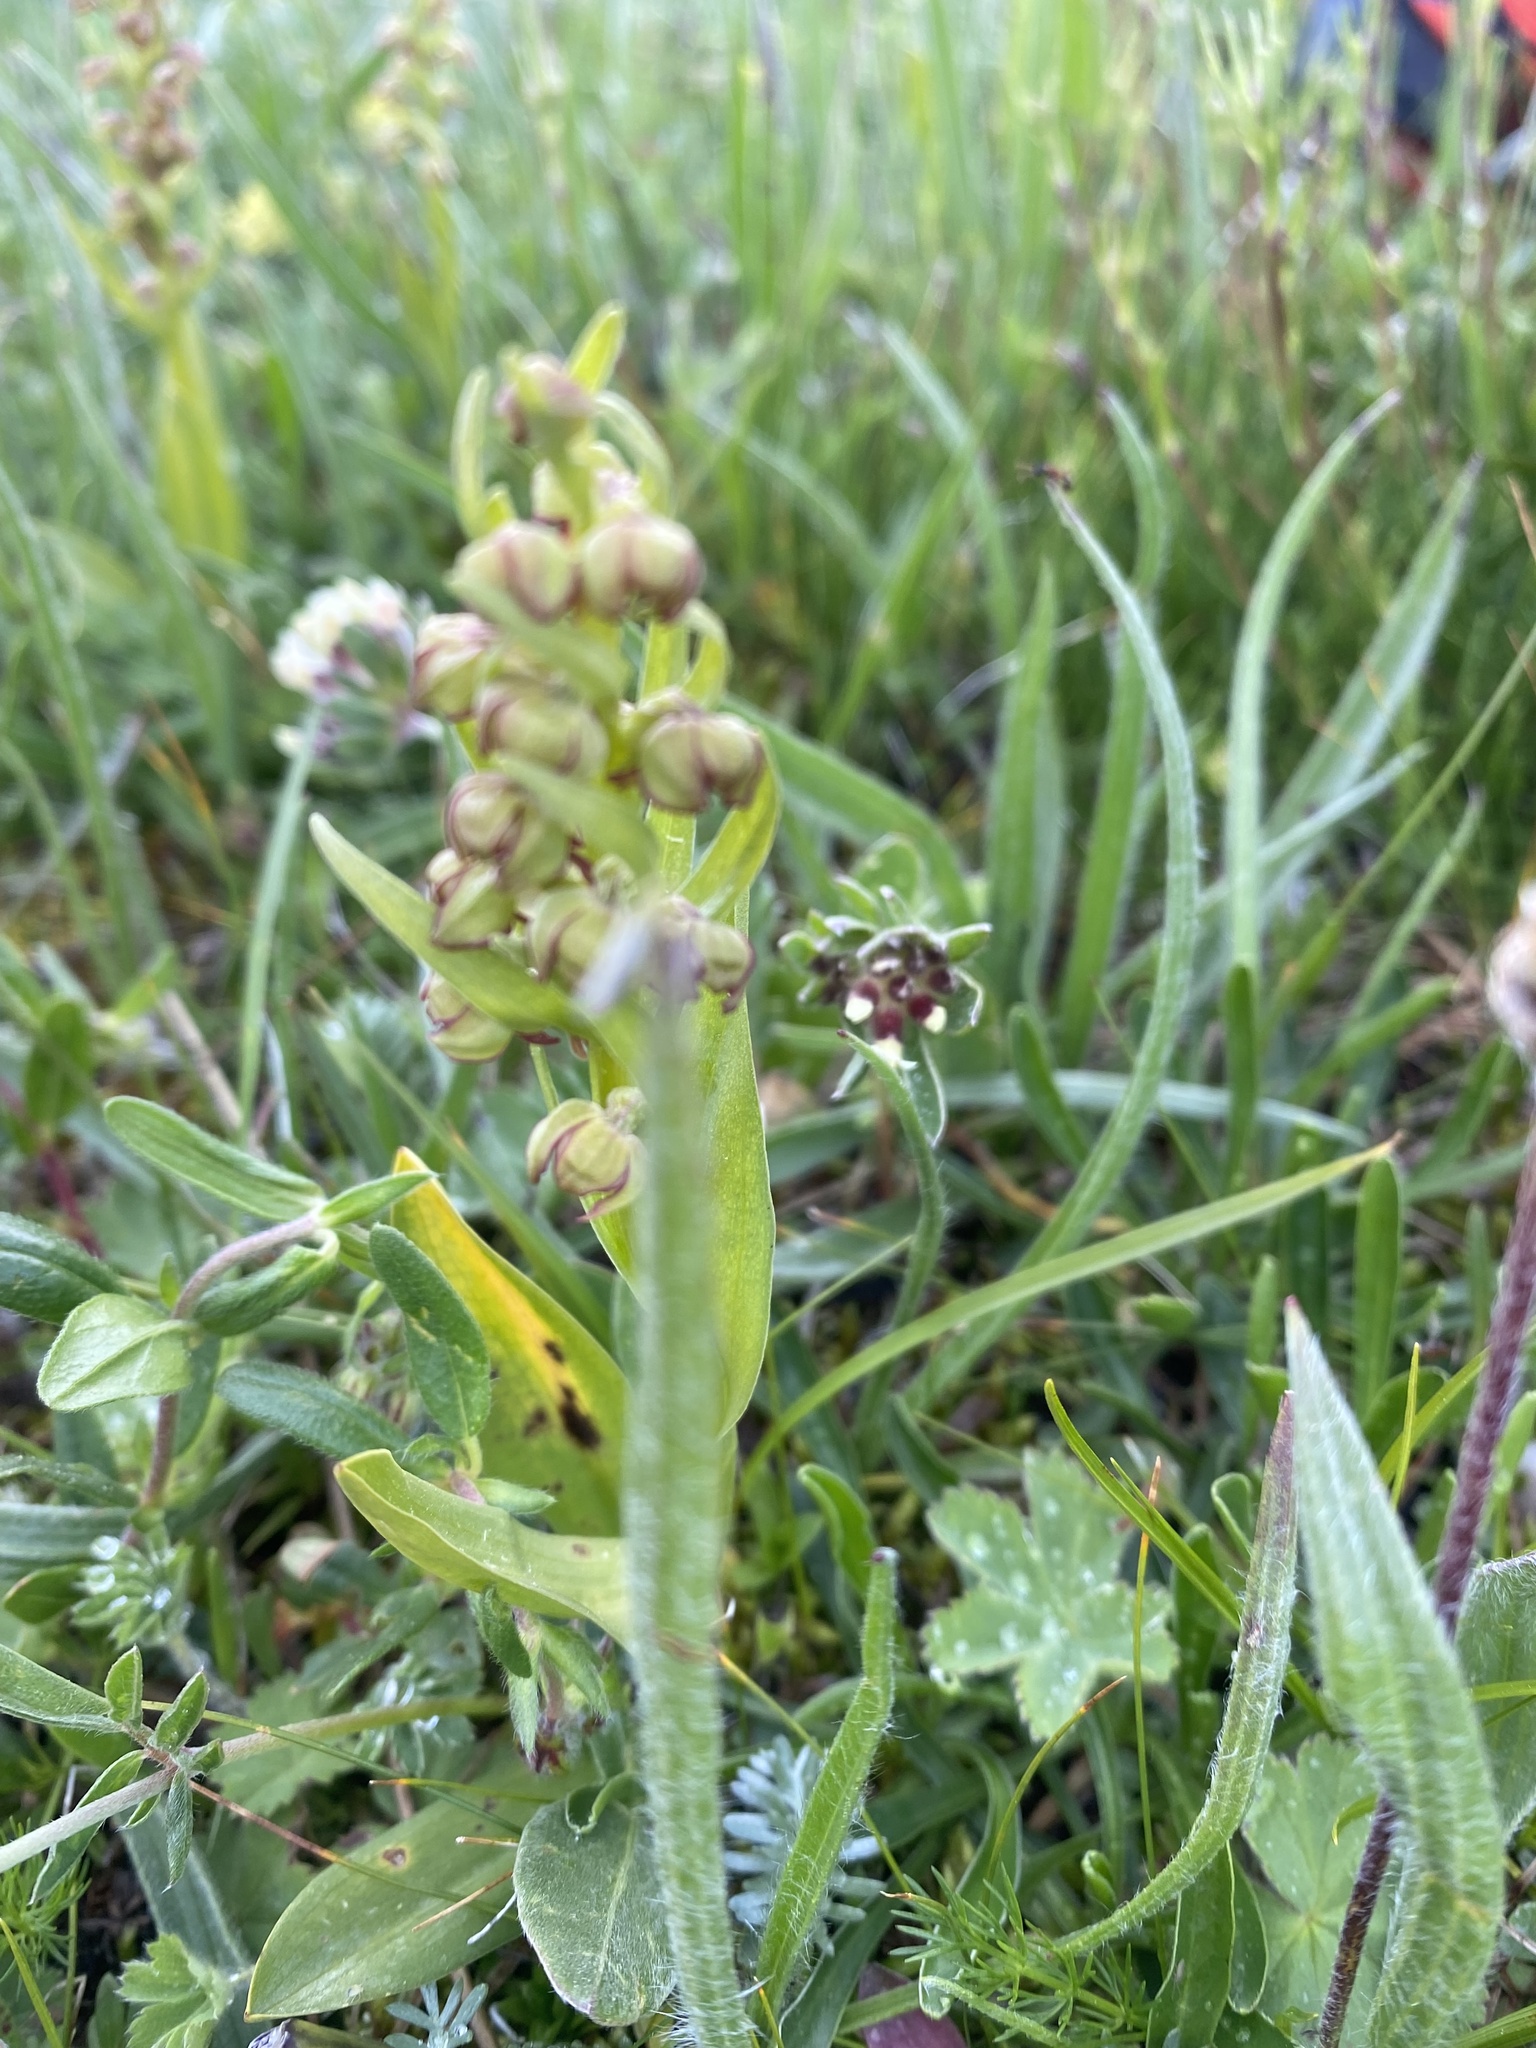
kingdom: Plantae
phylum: Tracheophyta
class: Liliopsida
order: Asparagales
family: Orchidaceae
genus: Dactylorhiza
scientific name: Dactylorhiza viridis
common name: Longbract frog orchid
